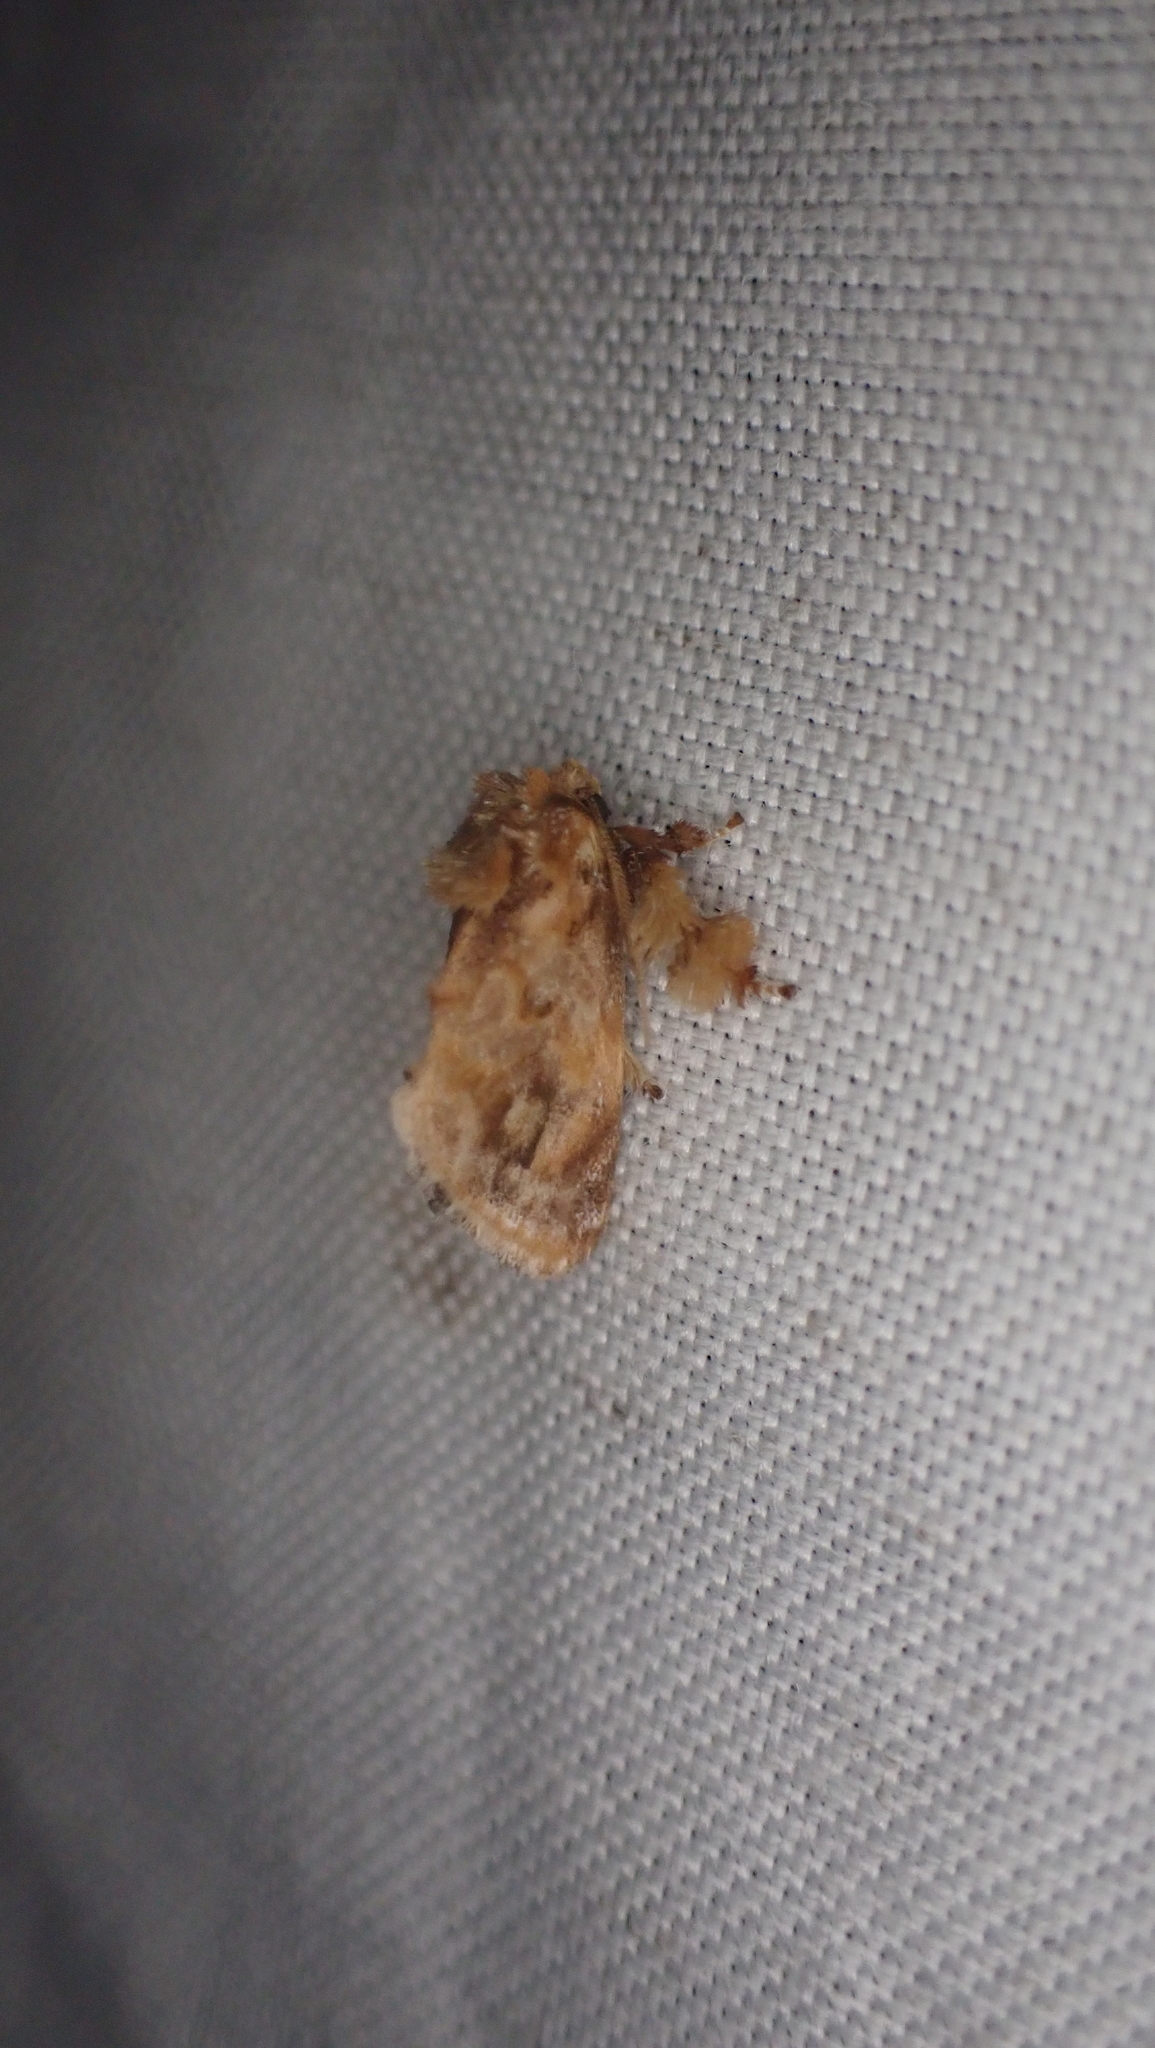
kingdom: Animalia
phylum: Arthropoda
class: Insecta
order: Lepidoptera
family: Limacodidae
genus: Isochaetes
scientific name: Isochaetes beutenmuelleri
